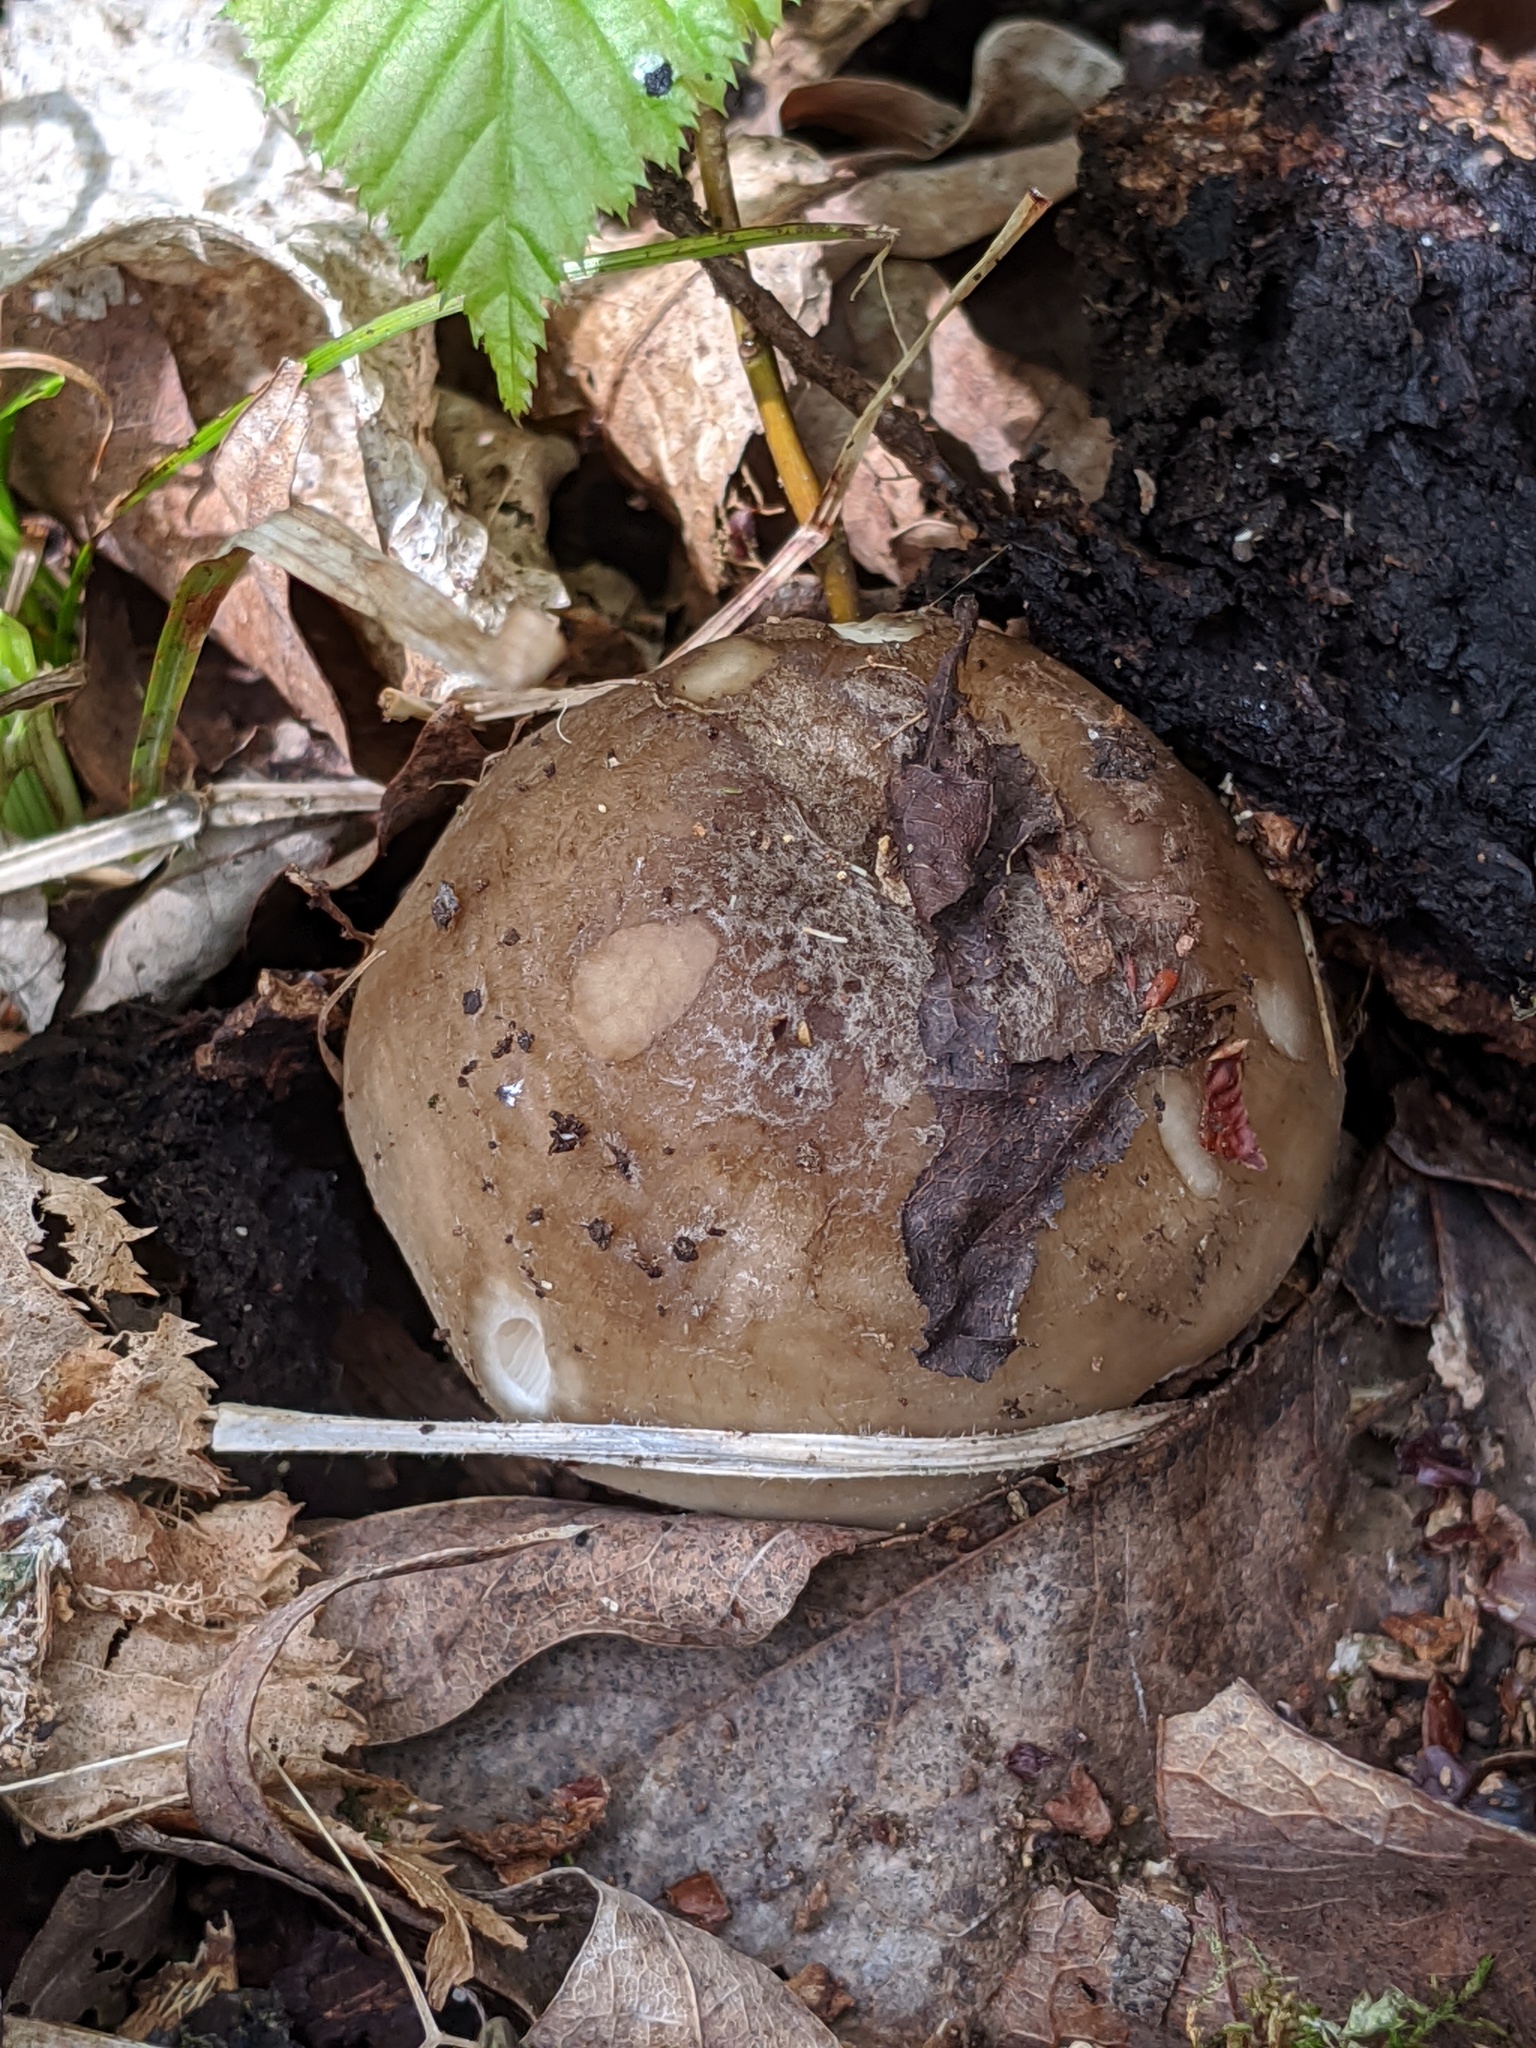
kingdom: Fungi
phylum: Basidiomycota
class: Agaricomycetes
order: Agaricales
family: Pluteaceae
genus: Pluteus
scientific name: Pluteus cervinus
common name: Deer shield
